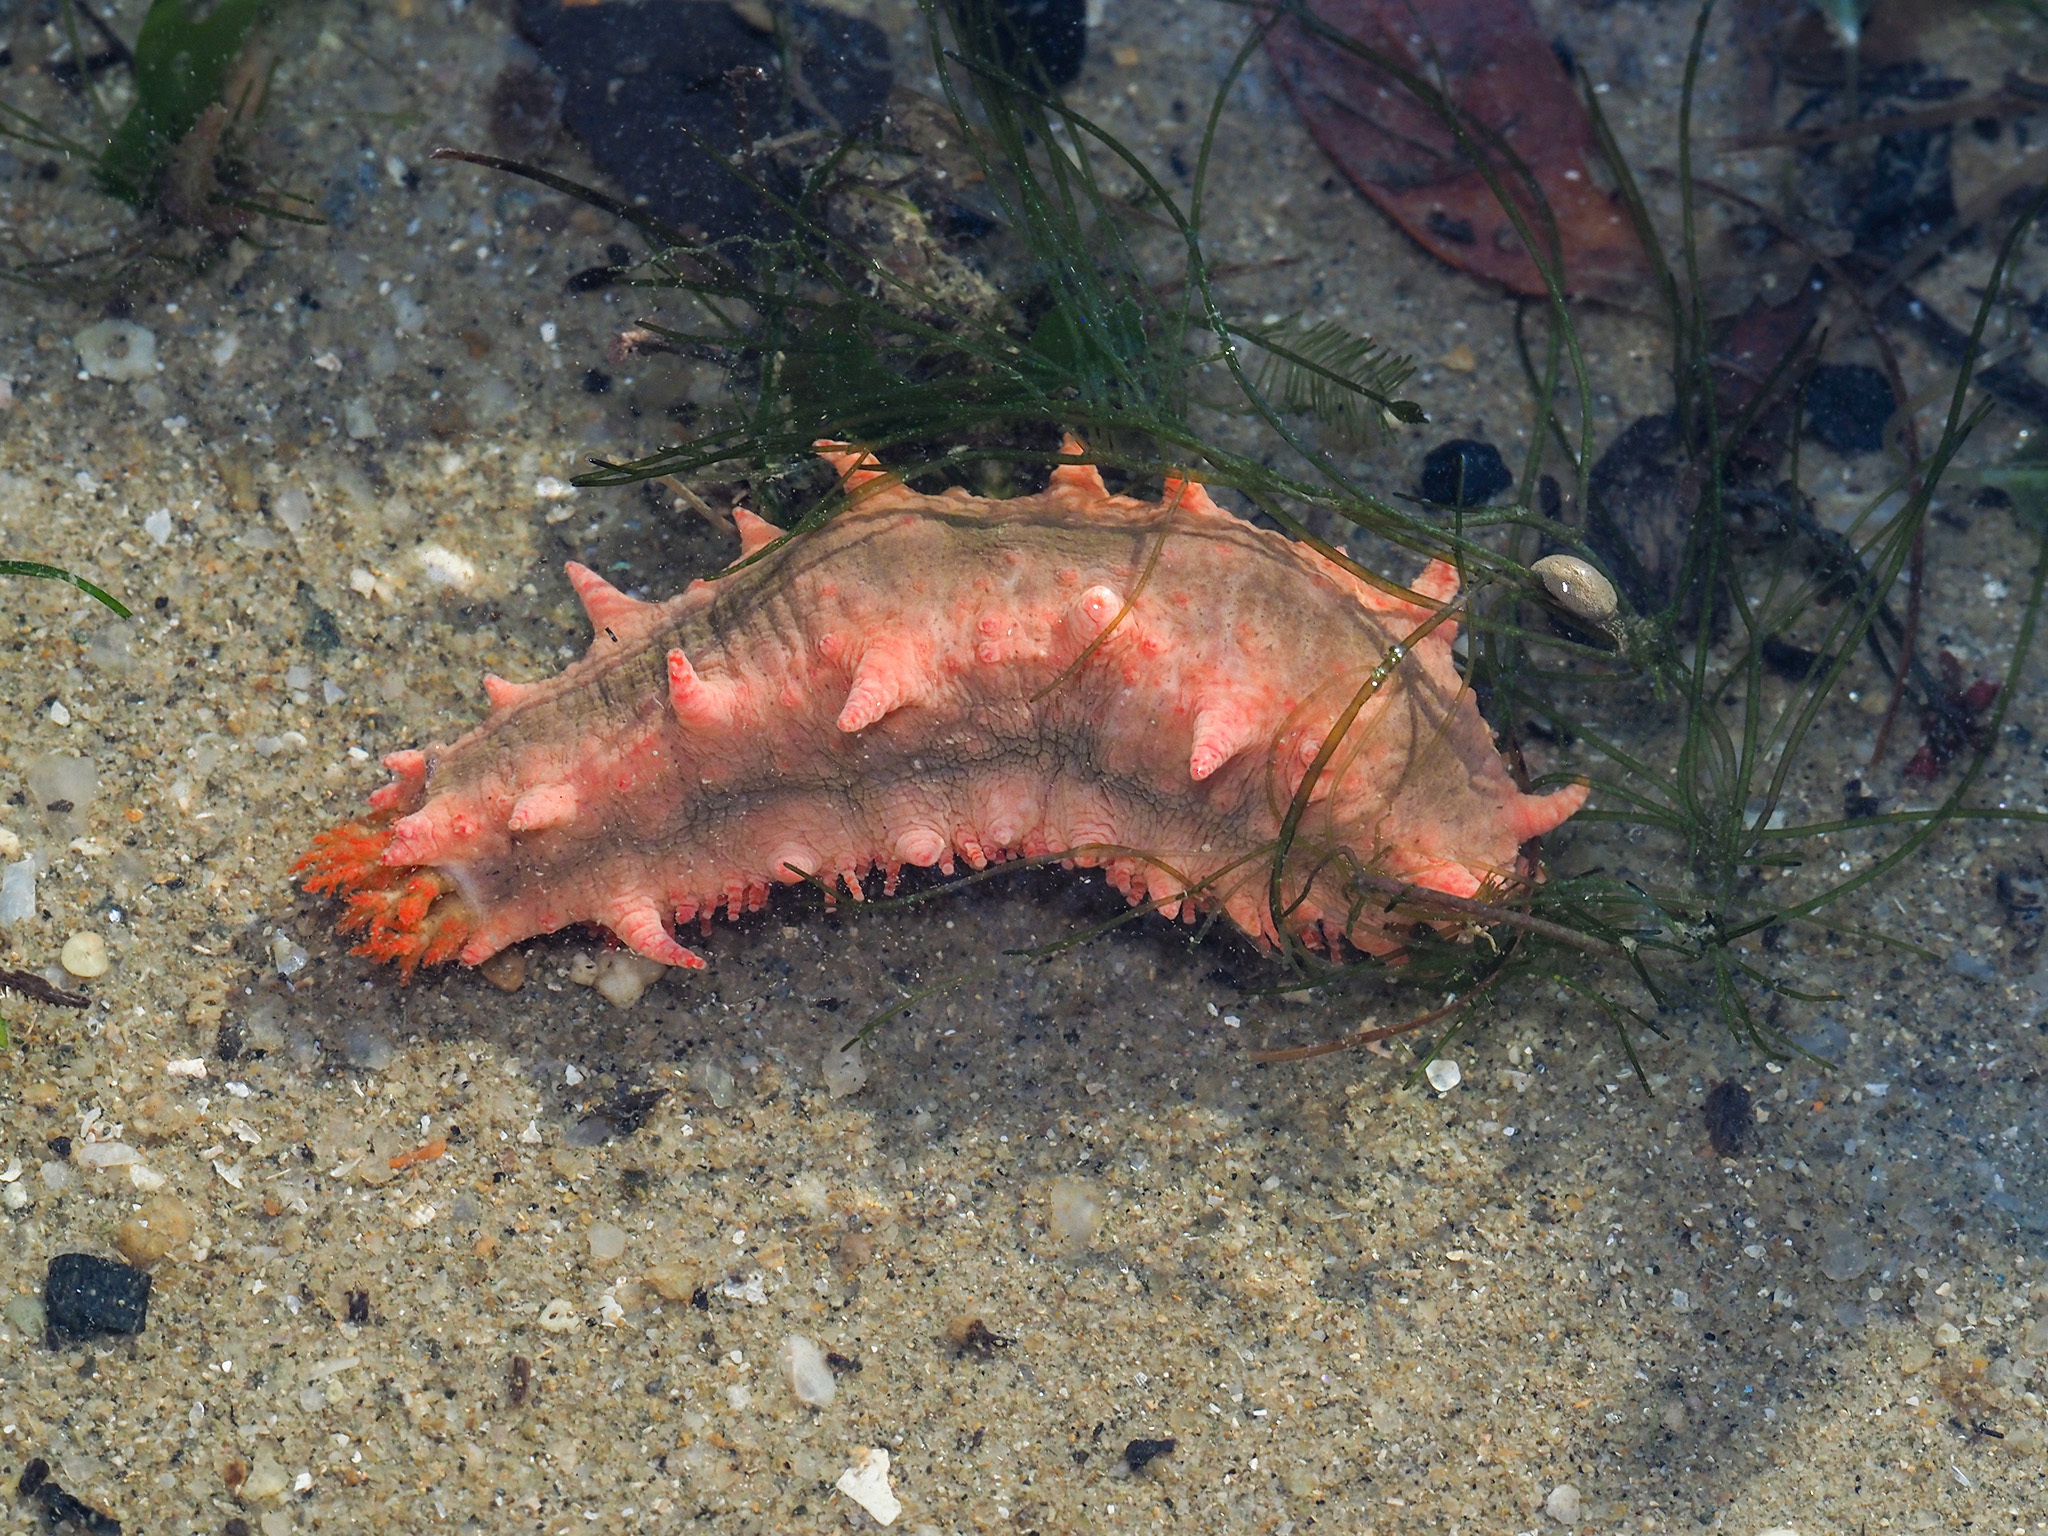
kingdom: Animalia
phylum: Echinodermata
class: Holothuroidea
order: Dendrochirotida
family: Cucumariidae
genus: Colochirus
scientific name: Colochirus quadrangularis
